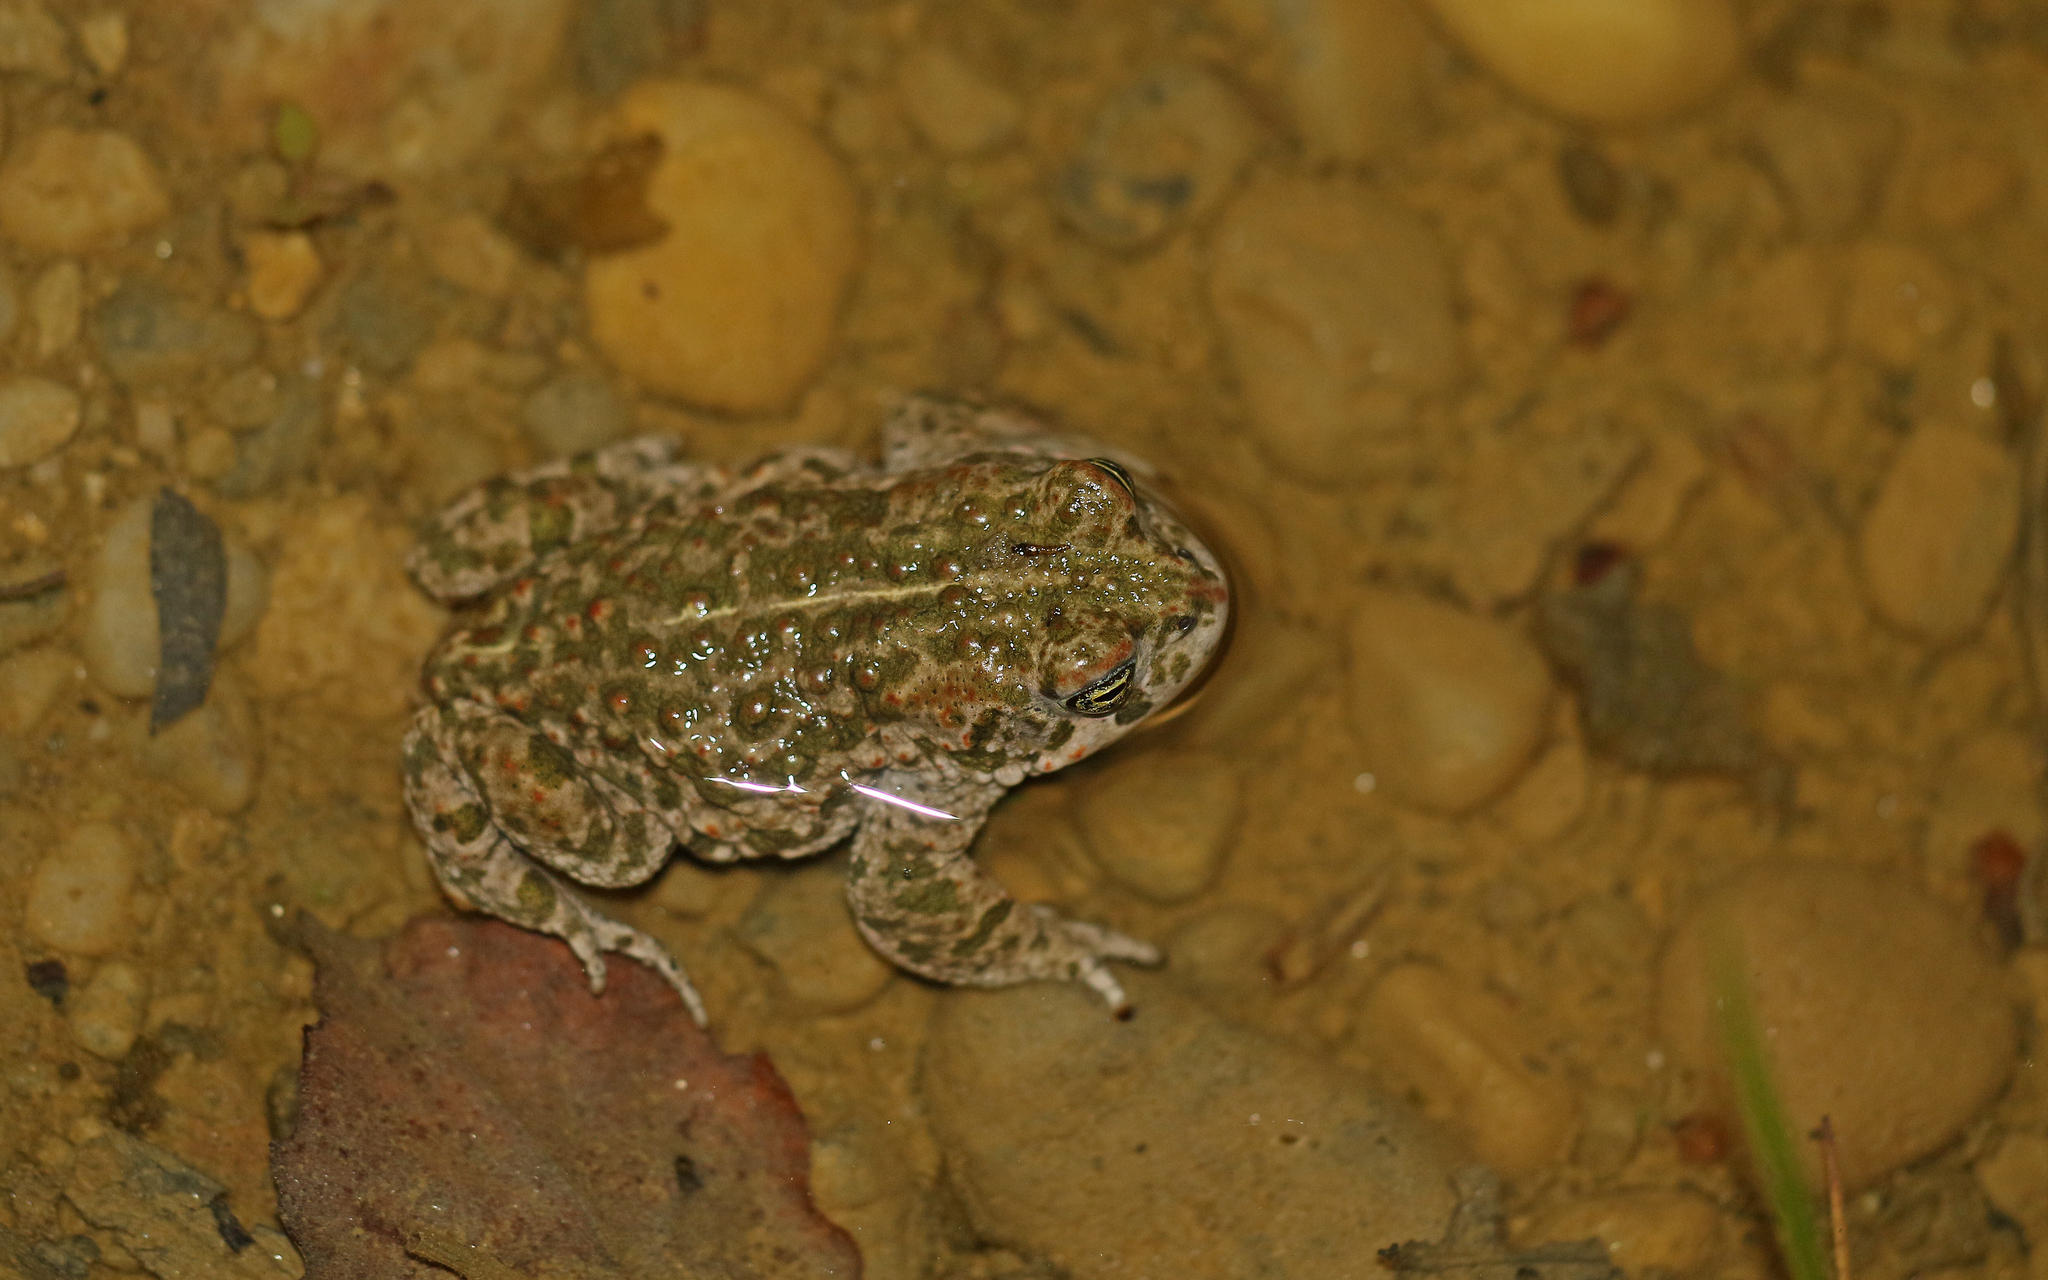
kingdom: Animalia
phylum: Chordata
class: Amphibia
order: Anura
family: Bufonidae
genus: Epidalea
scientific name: Epidalea calamita
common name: Natterjack toad
